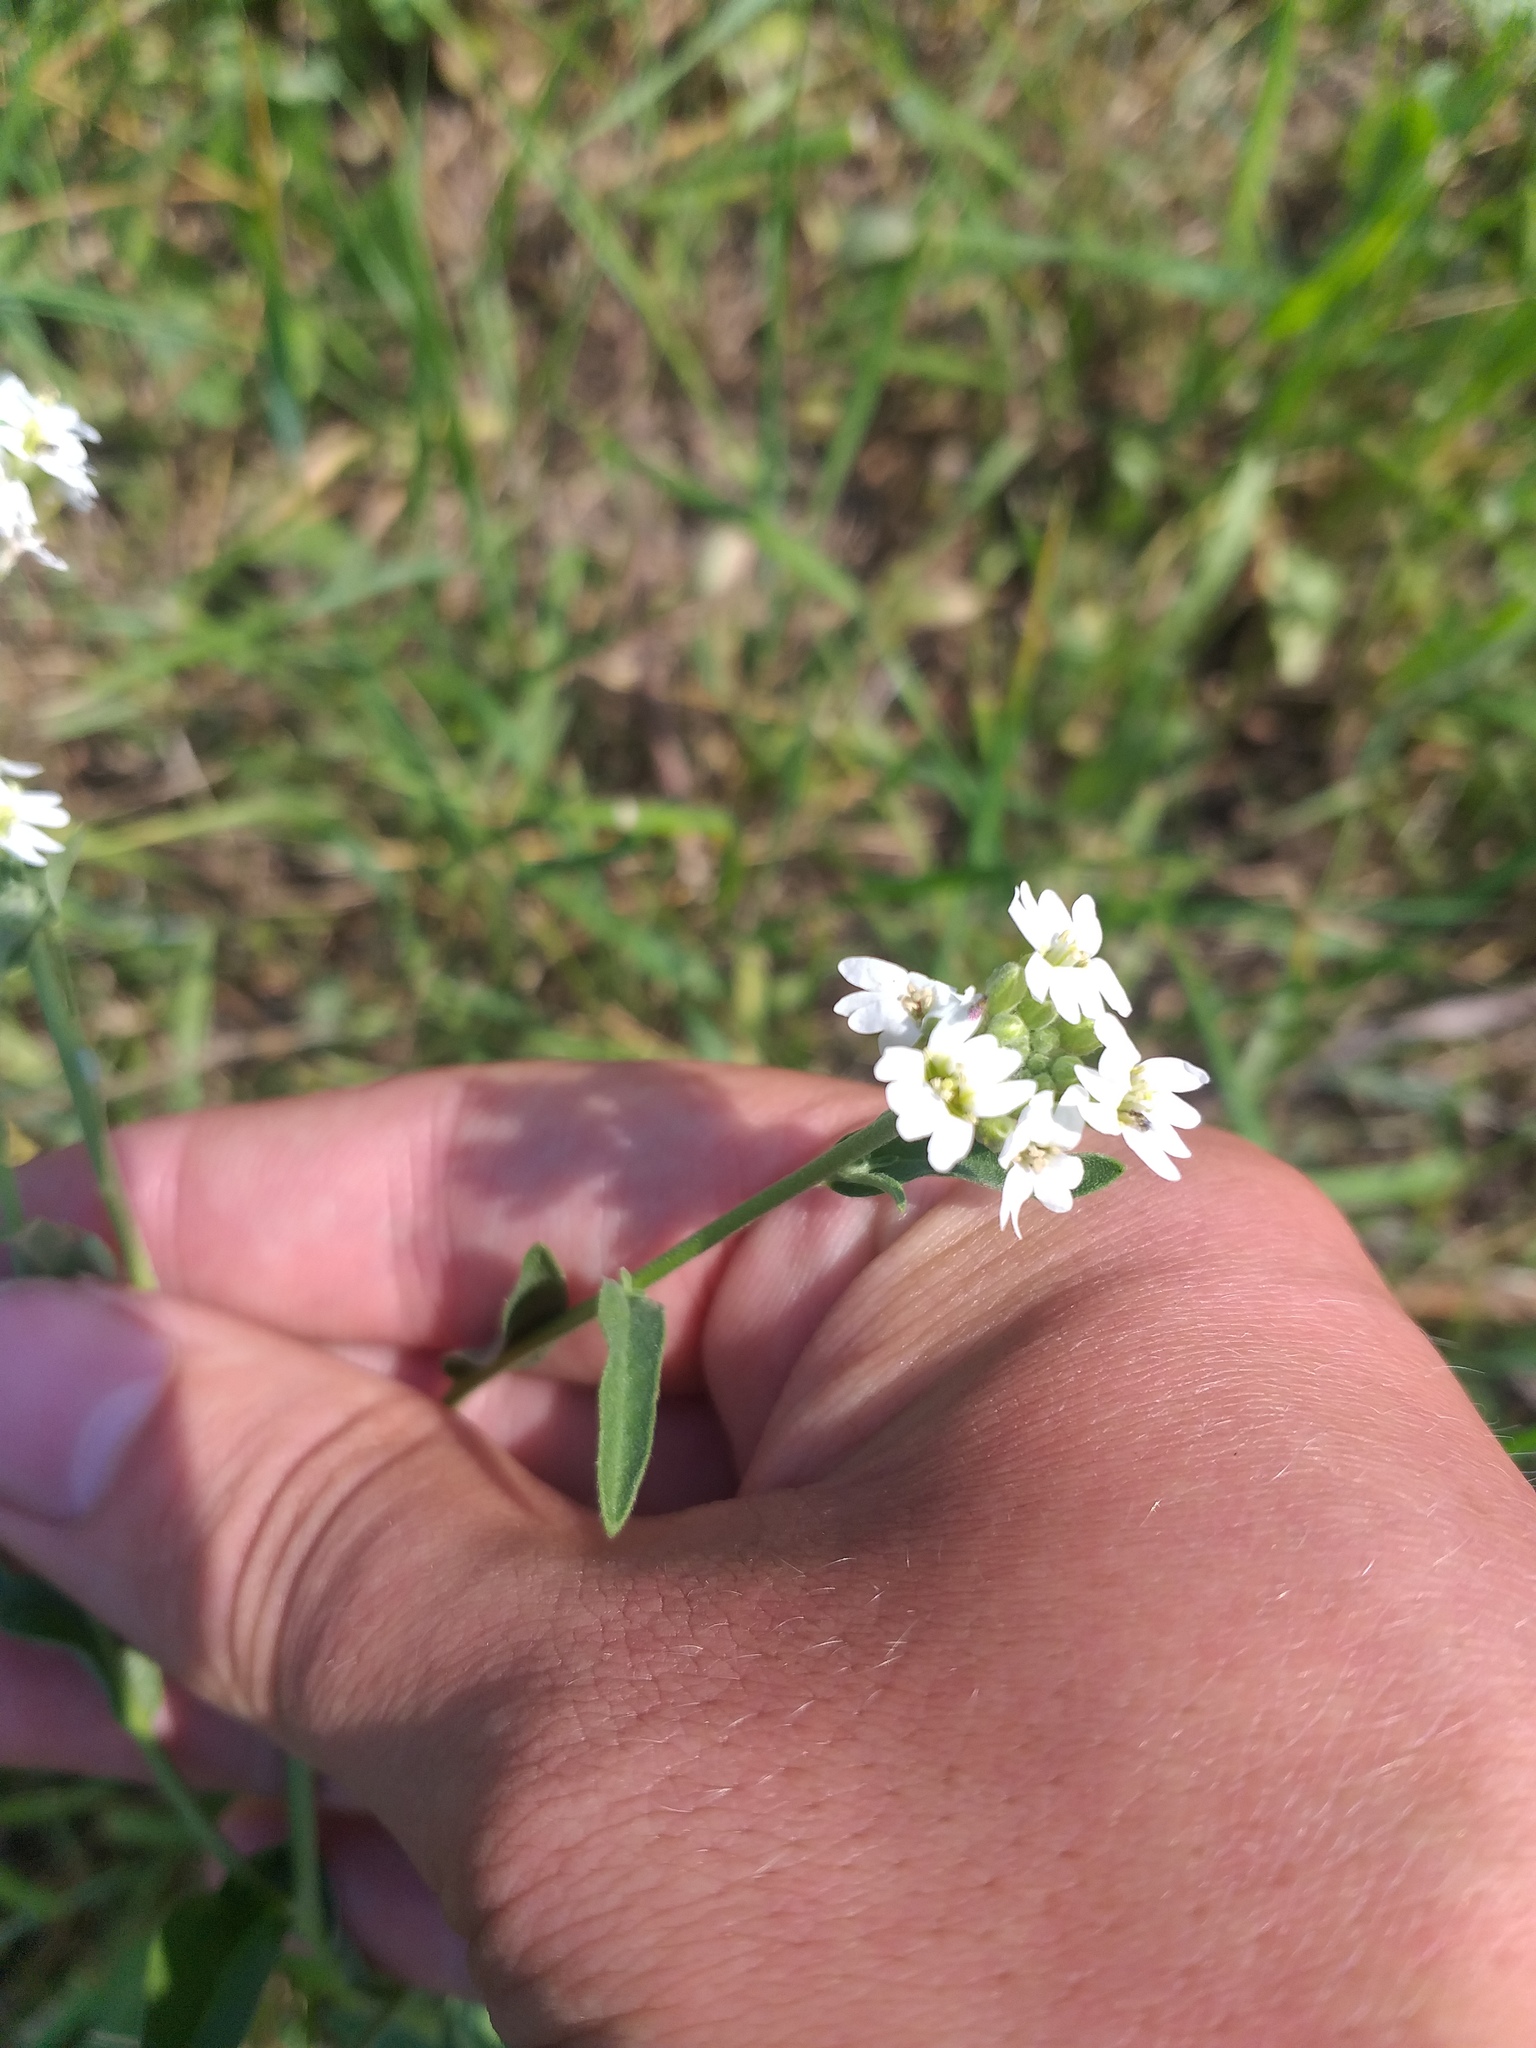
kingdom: Plantae
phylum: Tracheophyta
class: Magnoliopsida
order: Brassicales
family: Brassicaceae
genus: Berteroa
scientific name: Berteroa incana
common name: Hoary alison
